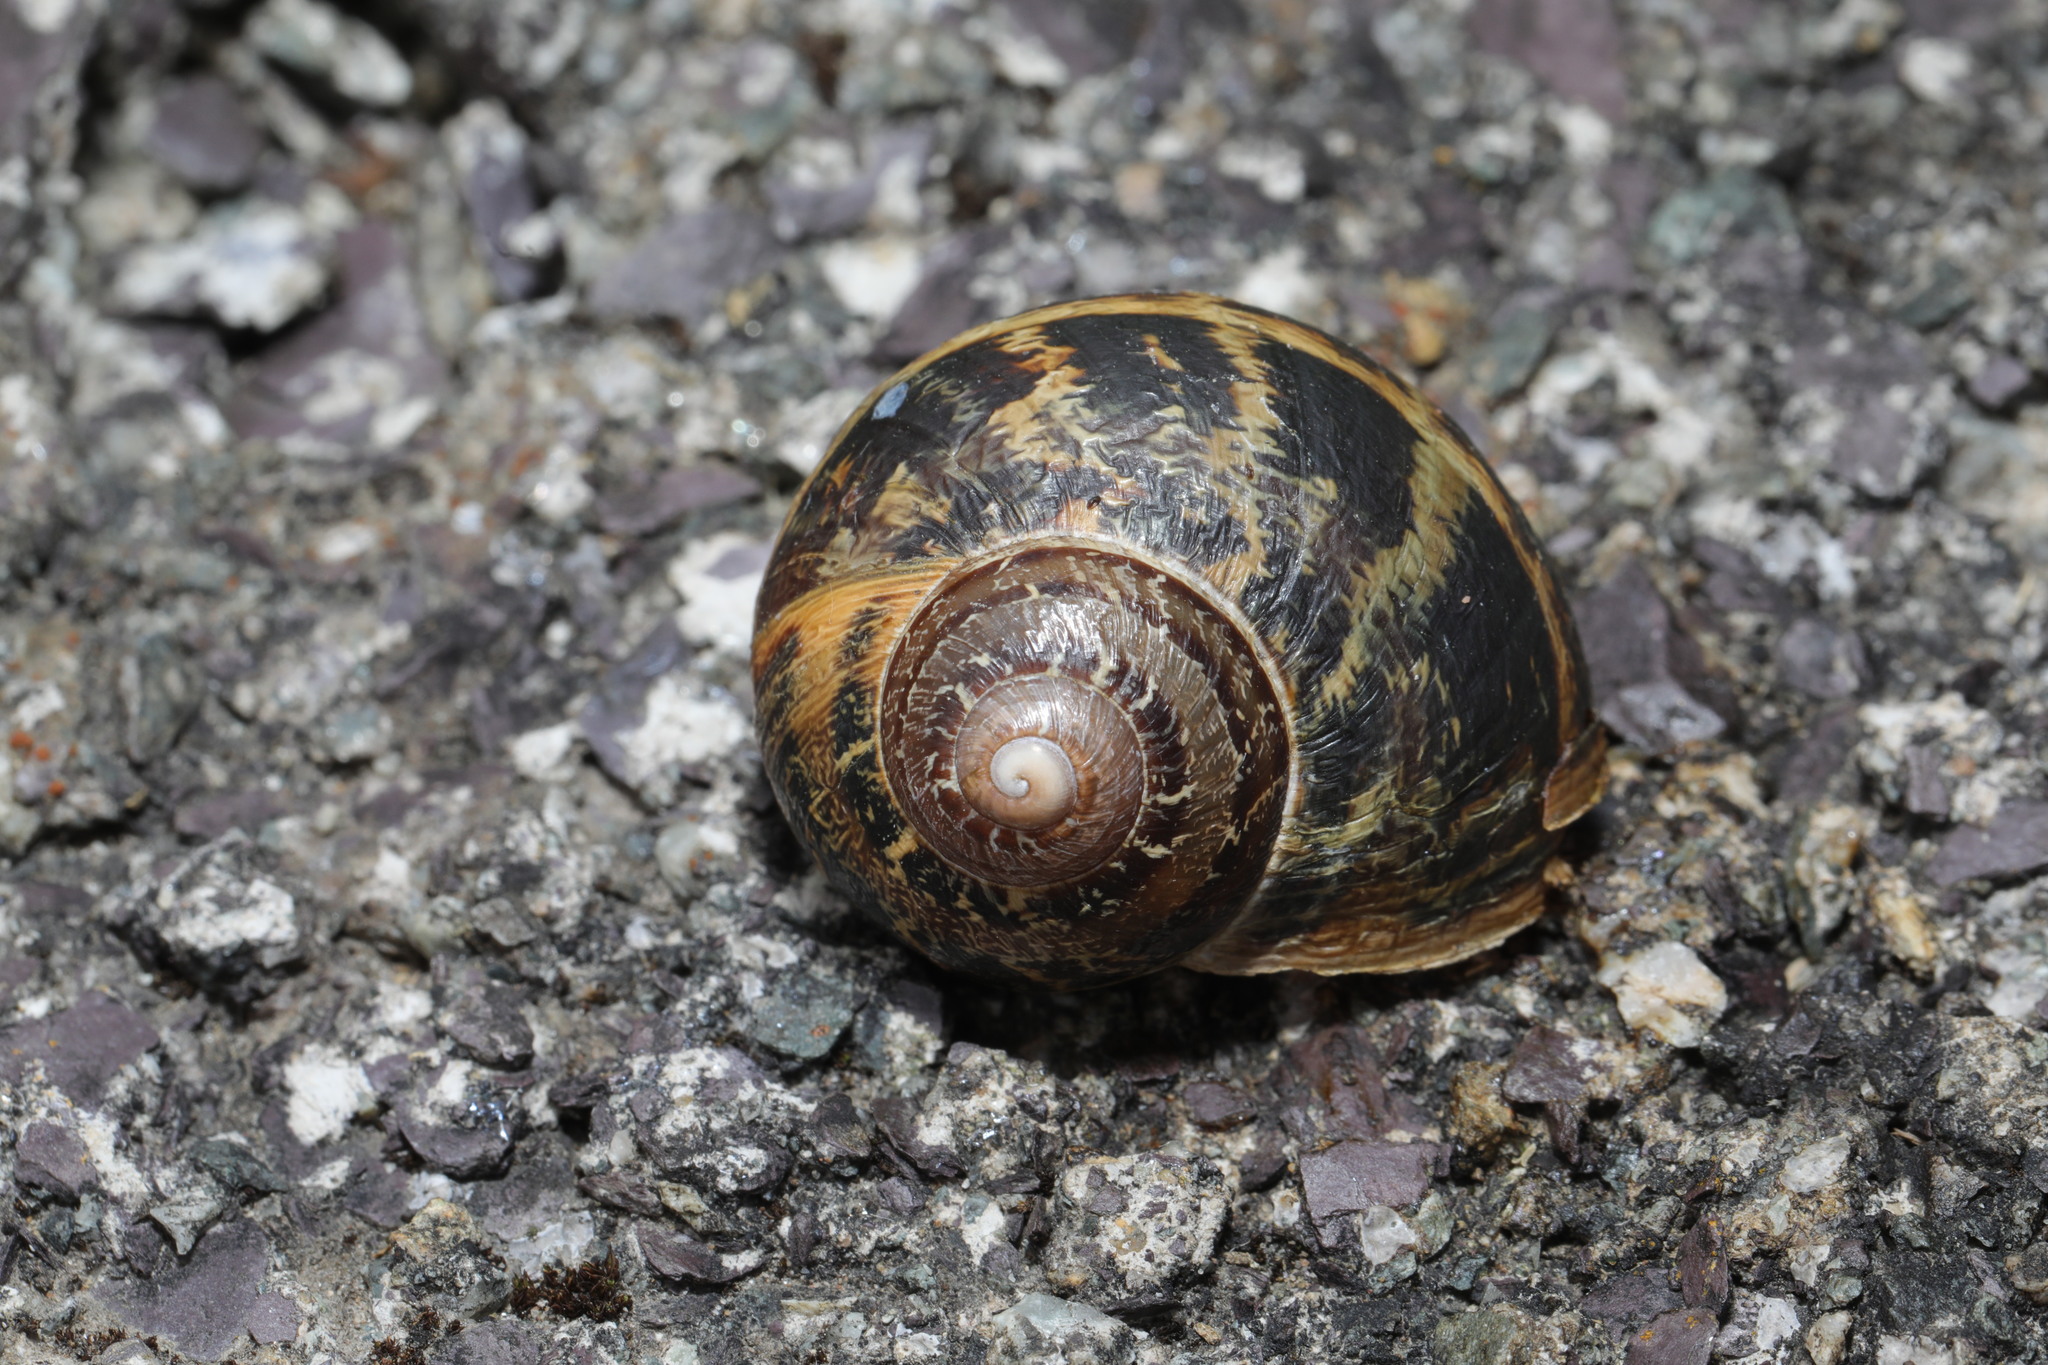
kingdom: Animalia
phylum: Mollusca
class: Gastropoda
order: Stylommatophora
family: Helicidae
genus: Cornu
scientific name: Cornu aspersum
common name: Brown garden snail
